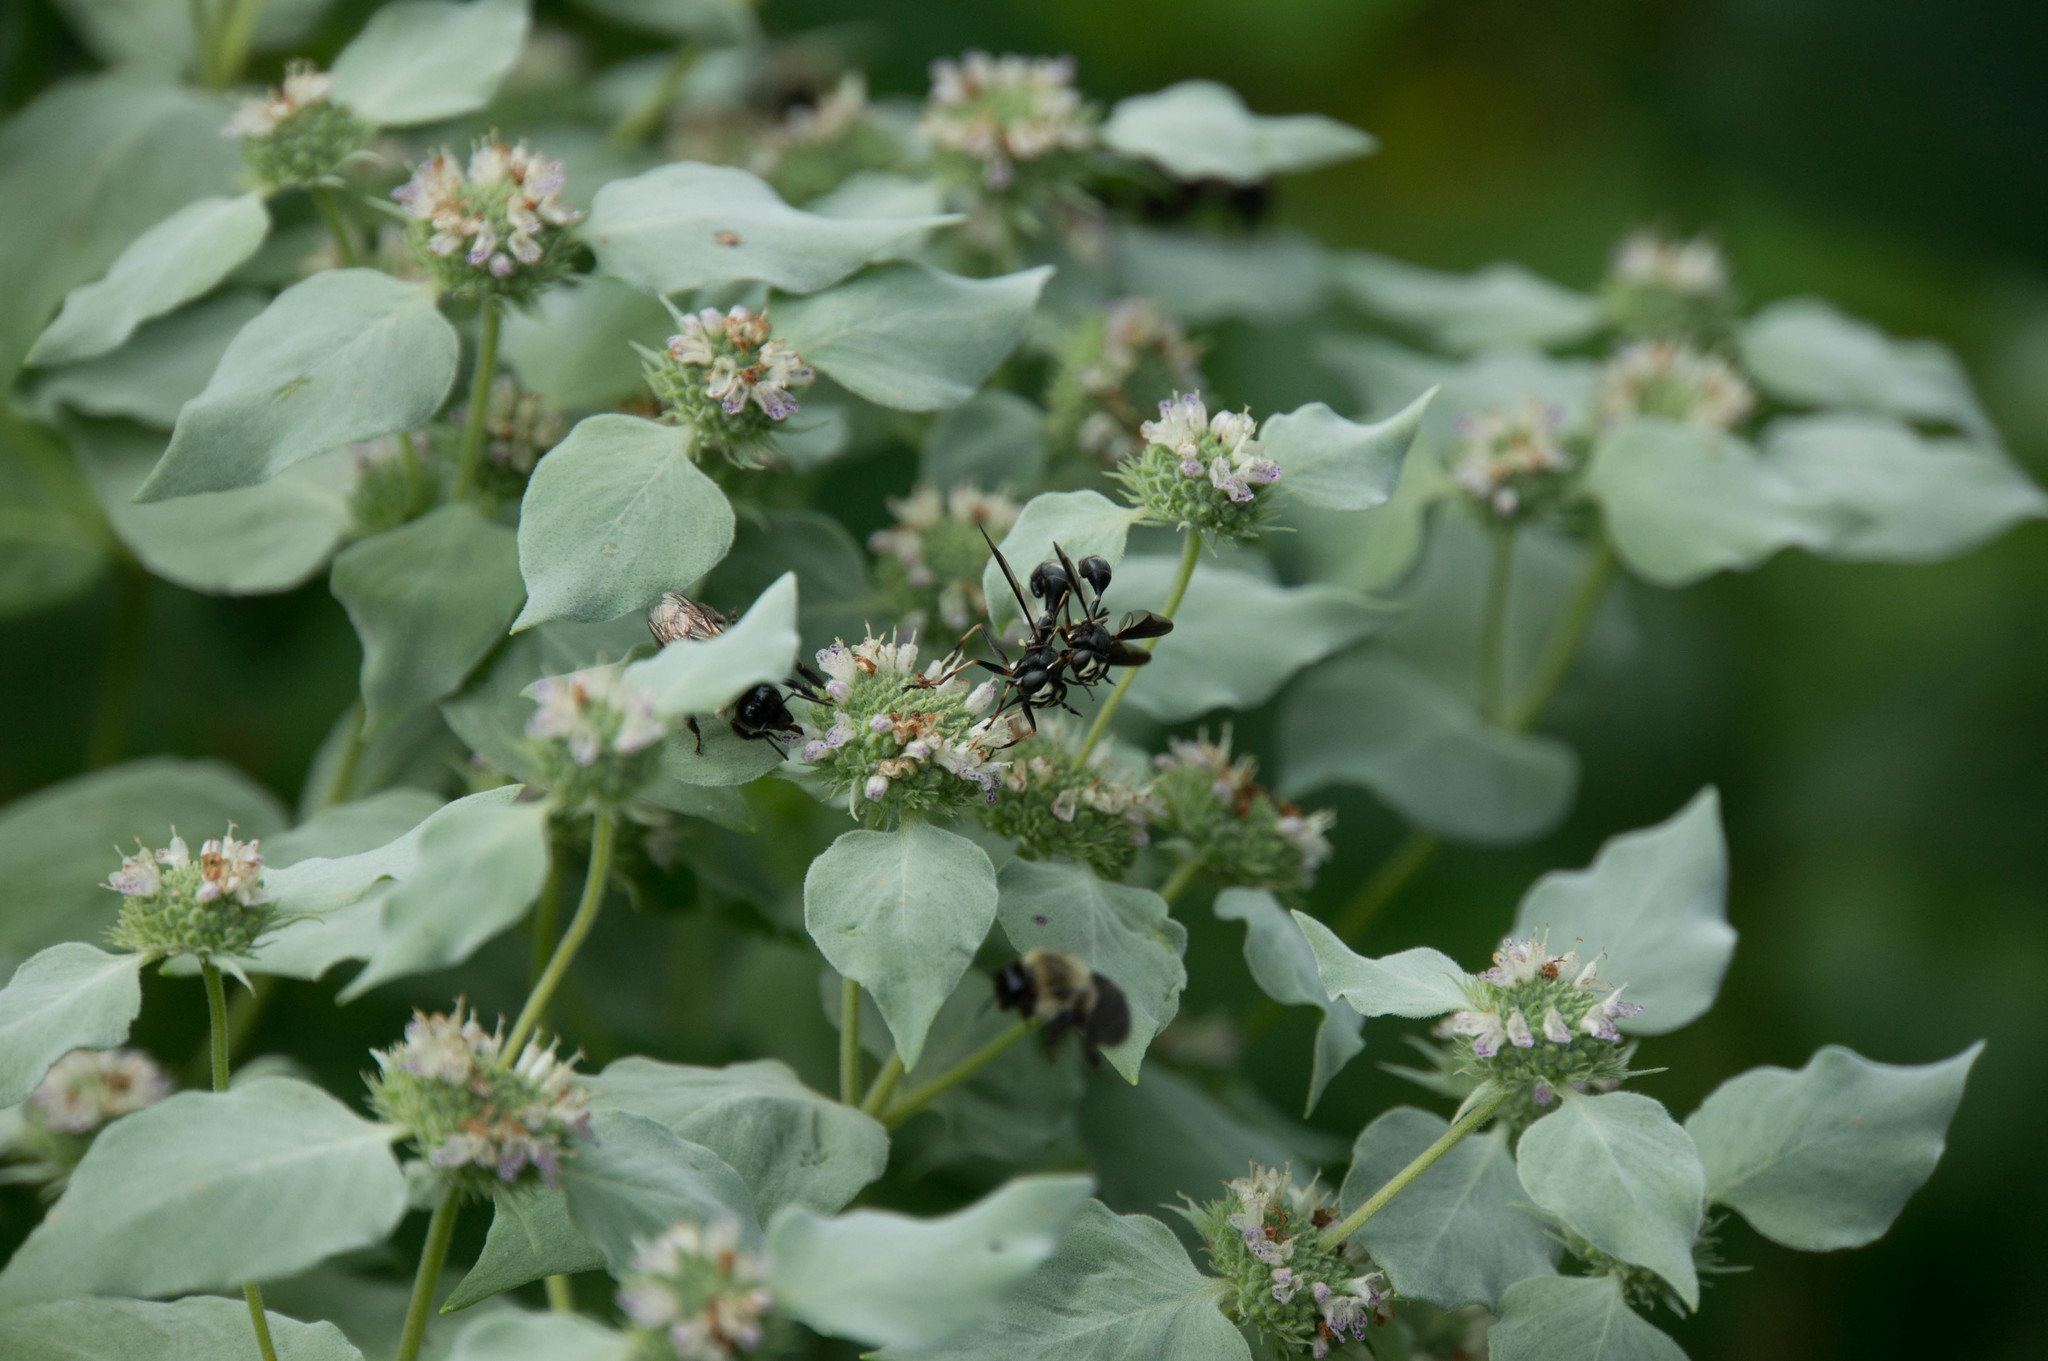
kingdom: Animalia
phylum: Arthropoda
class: Insecta
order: Diptera
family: Conopidae
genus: Physocephala
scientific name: Physocephala tibialis
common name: Common eastern physocephala
